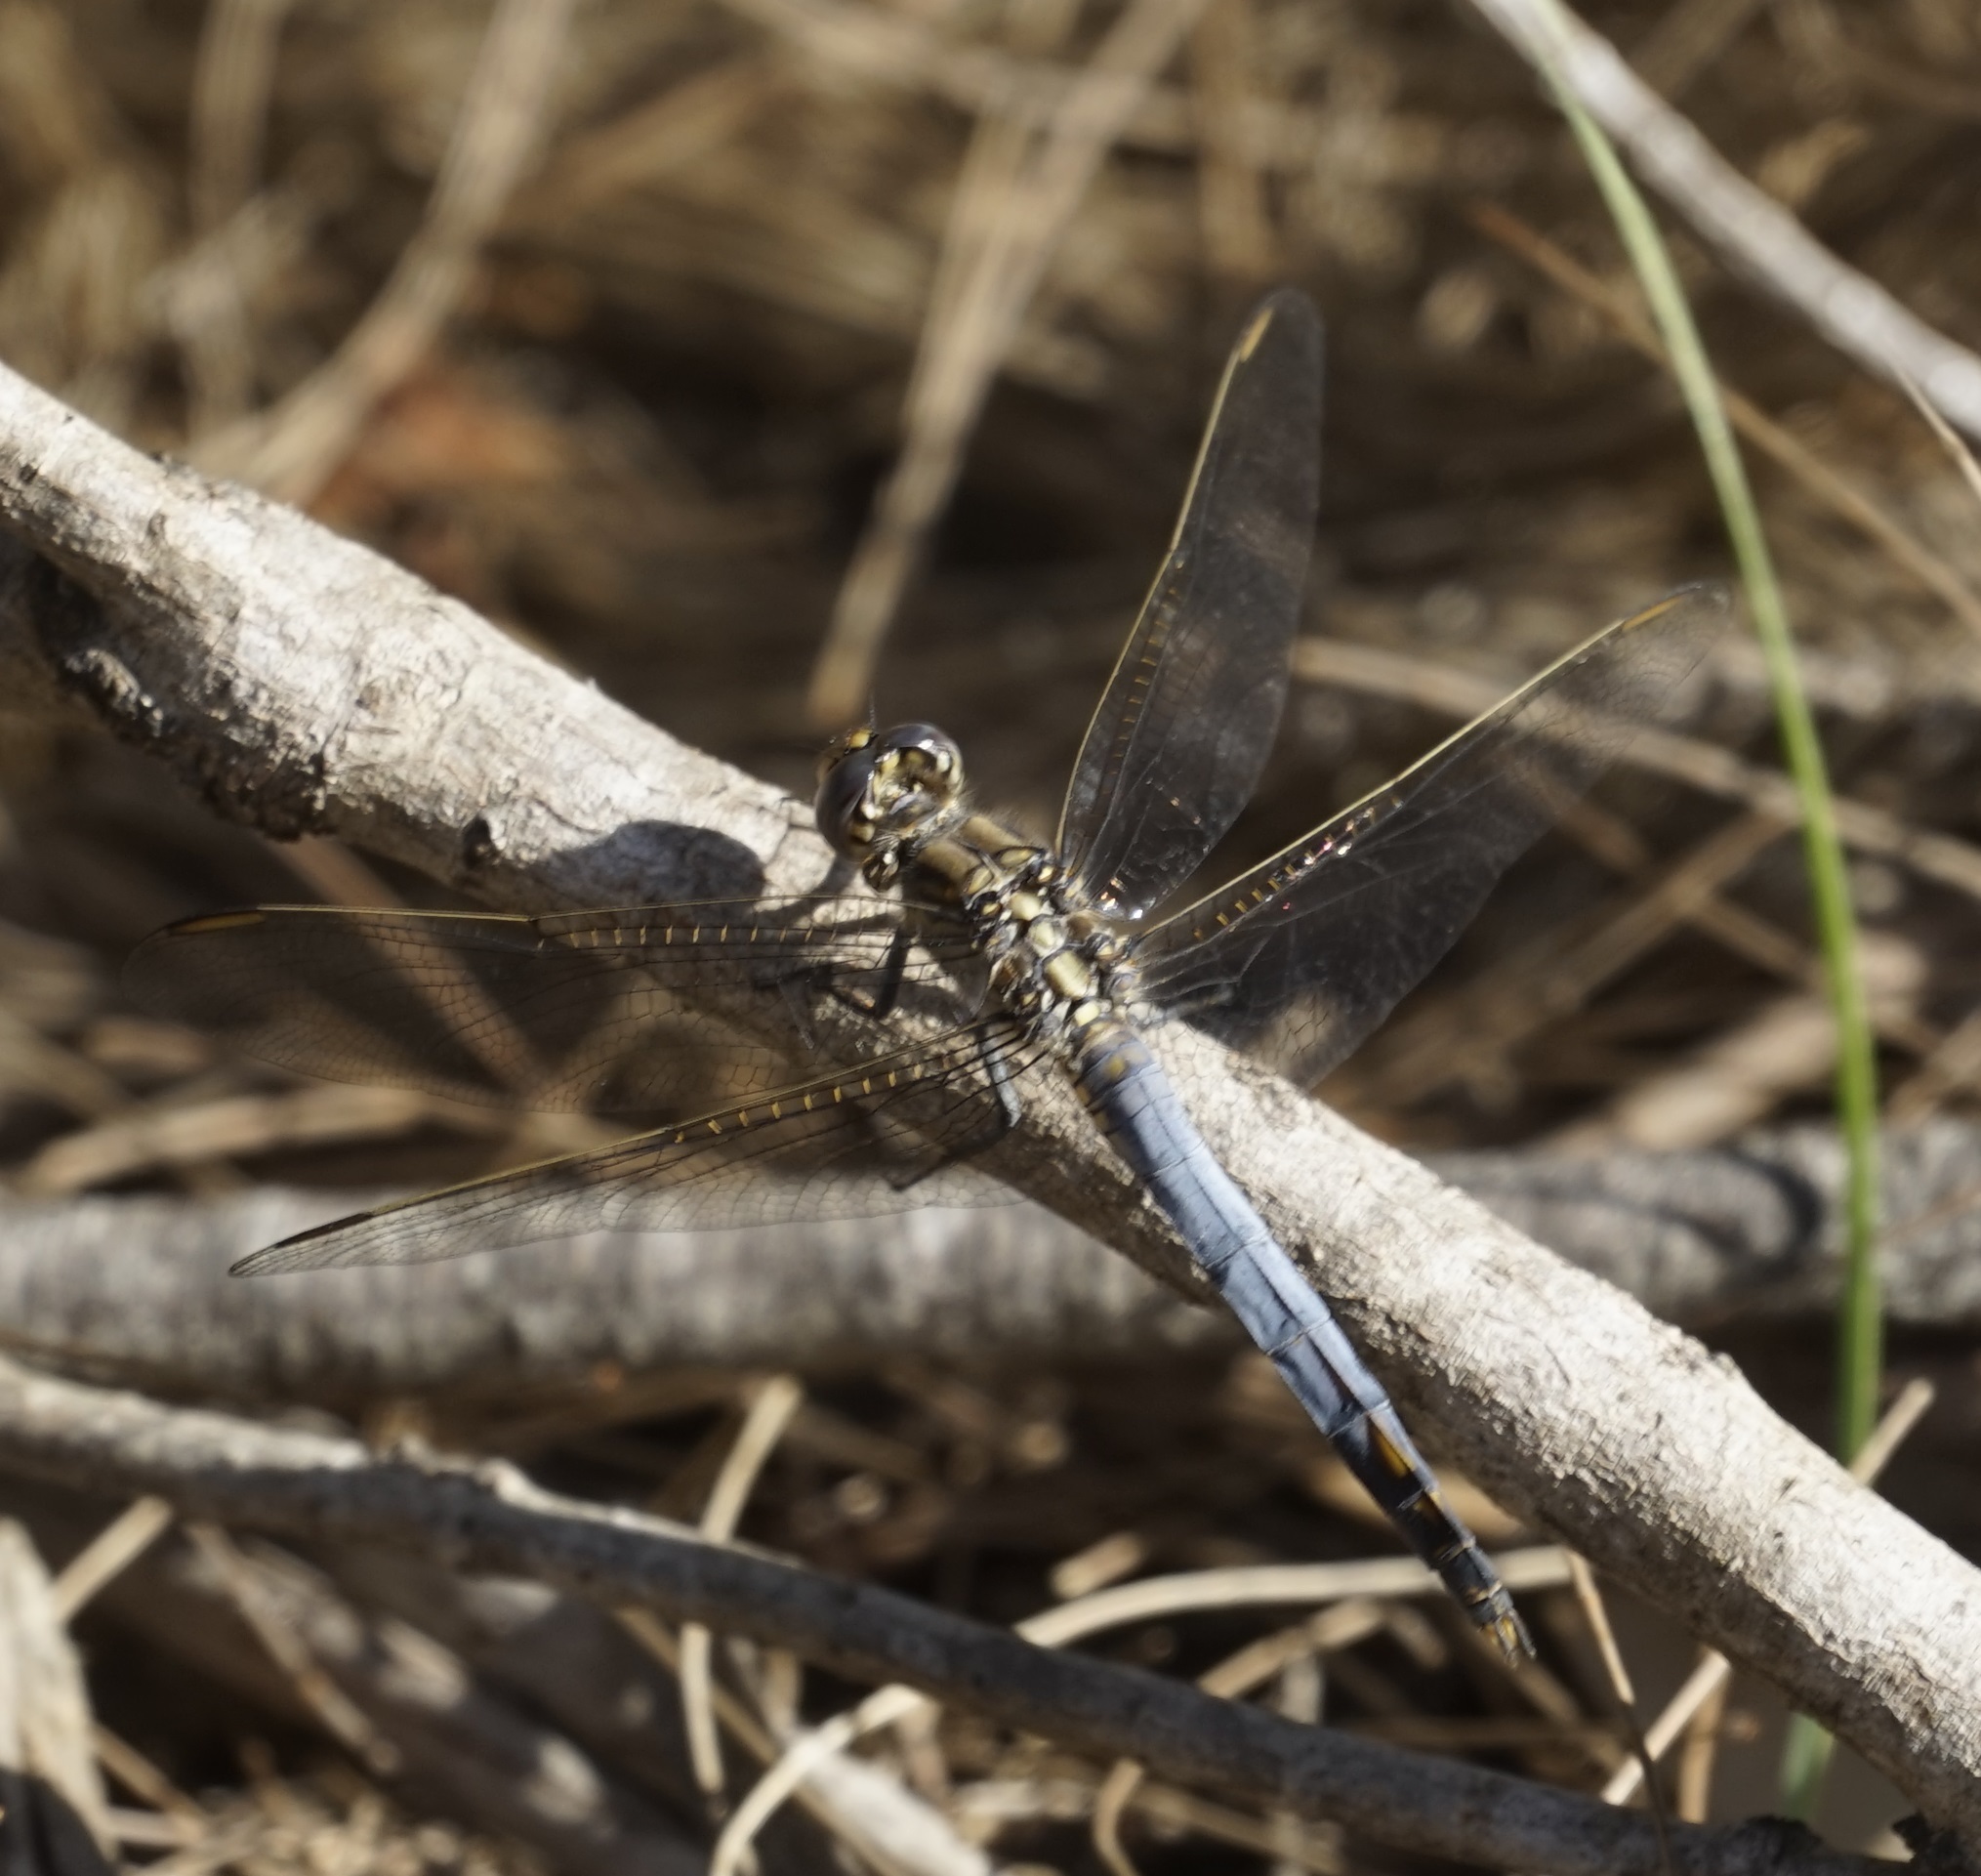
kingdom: Animalia
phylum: Arthropoda
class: Insecta
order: Odonata
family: Libellulidae
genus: Orthetrum
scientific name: Orthetrum caledonicum
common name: Blue skimmer
